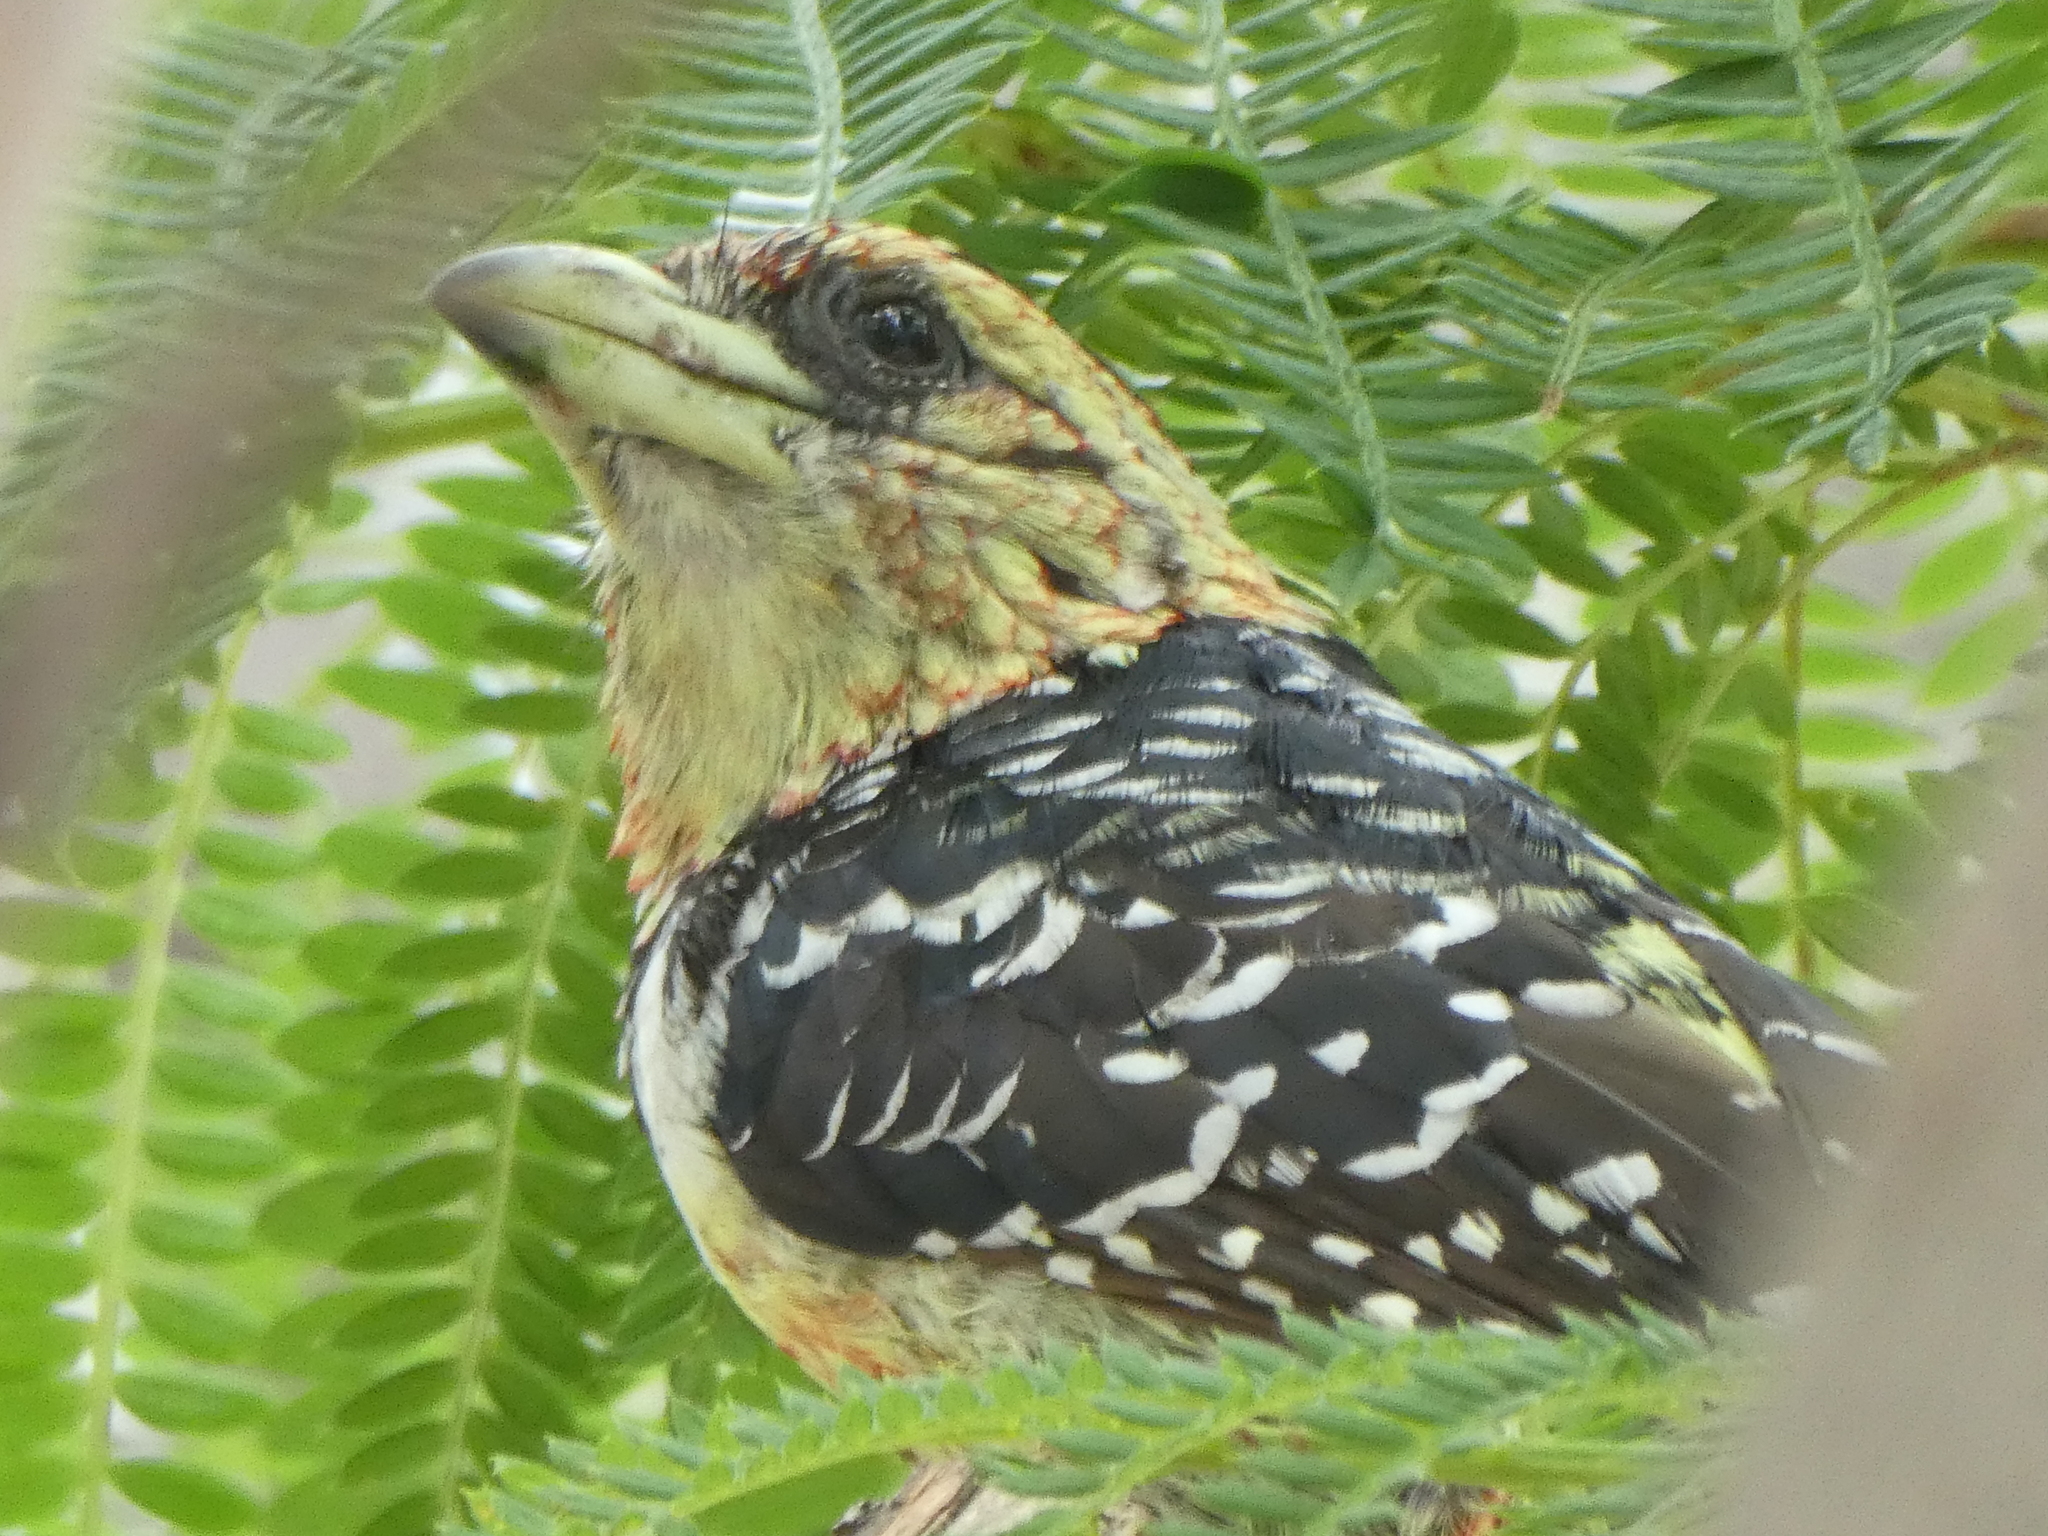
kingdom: Animalia
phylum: Chordata
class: Aves
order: Piciformes
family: Lybiidae
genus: Trachyphonus
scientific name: Trachyphonus vaillantii
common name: Crested barbet
